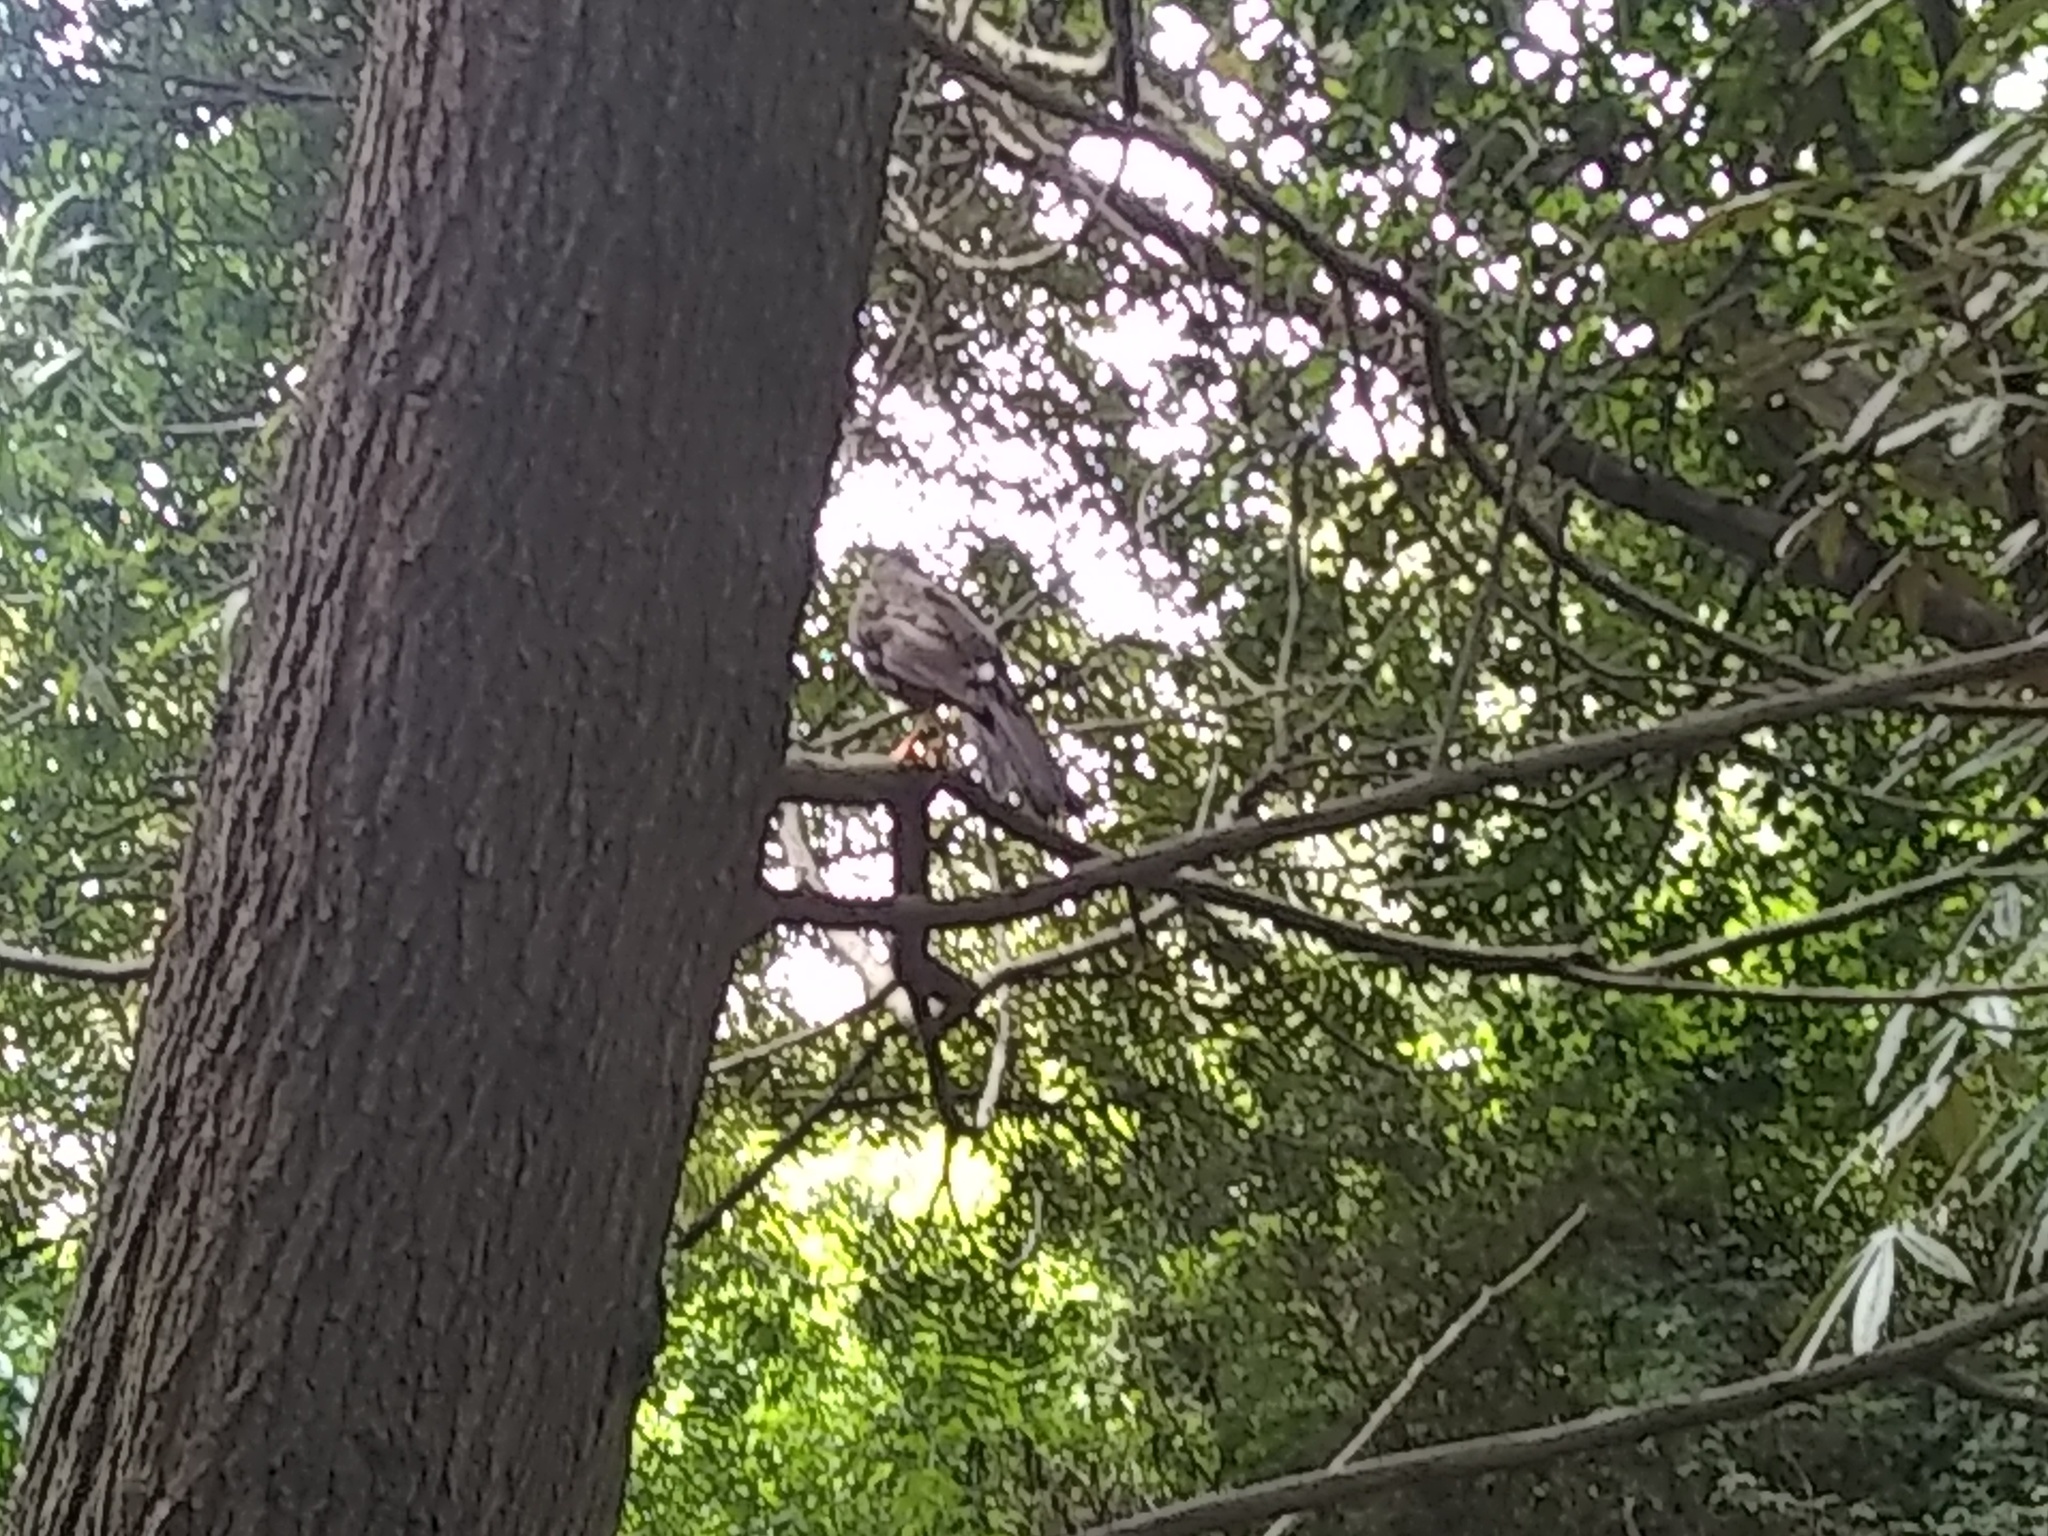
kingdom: Animalia
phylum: Chordata
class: Aves
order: Passeriformes
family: Turdidae
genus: Turdus
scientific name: Turdus fuscater
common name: Great thrush
